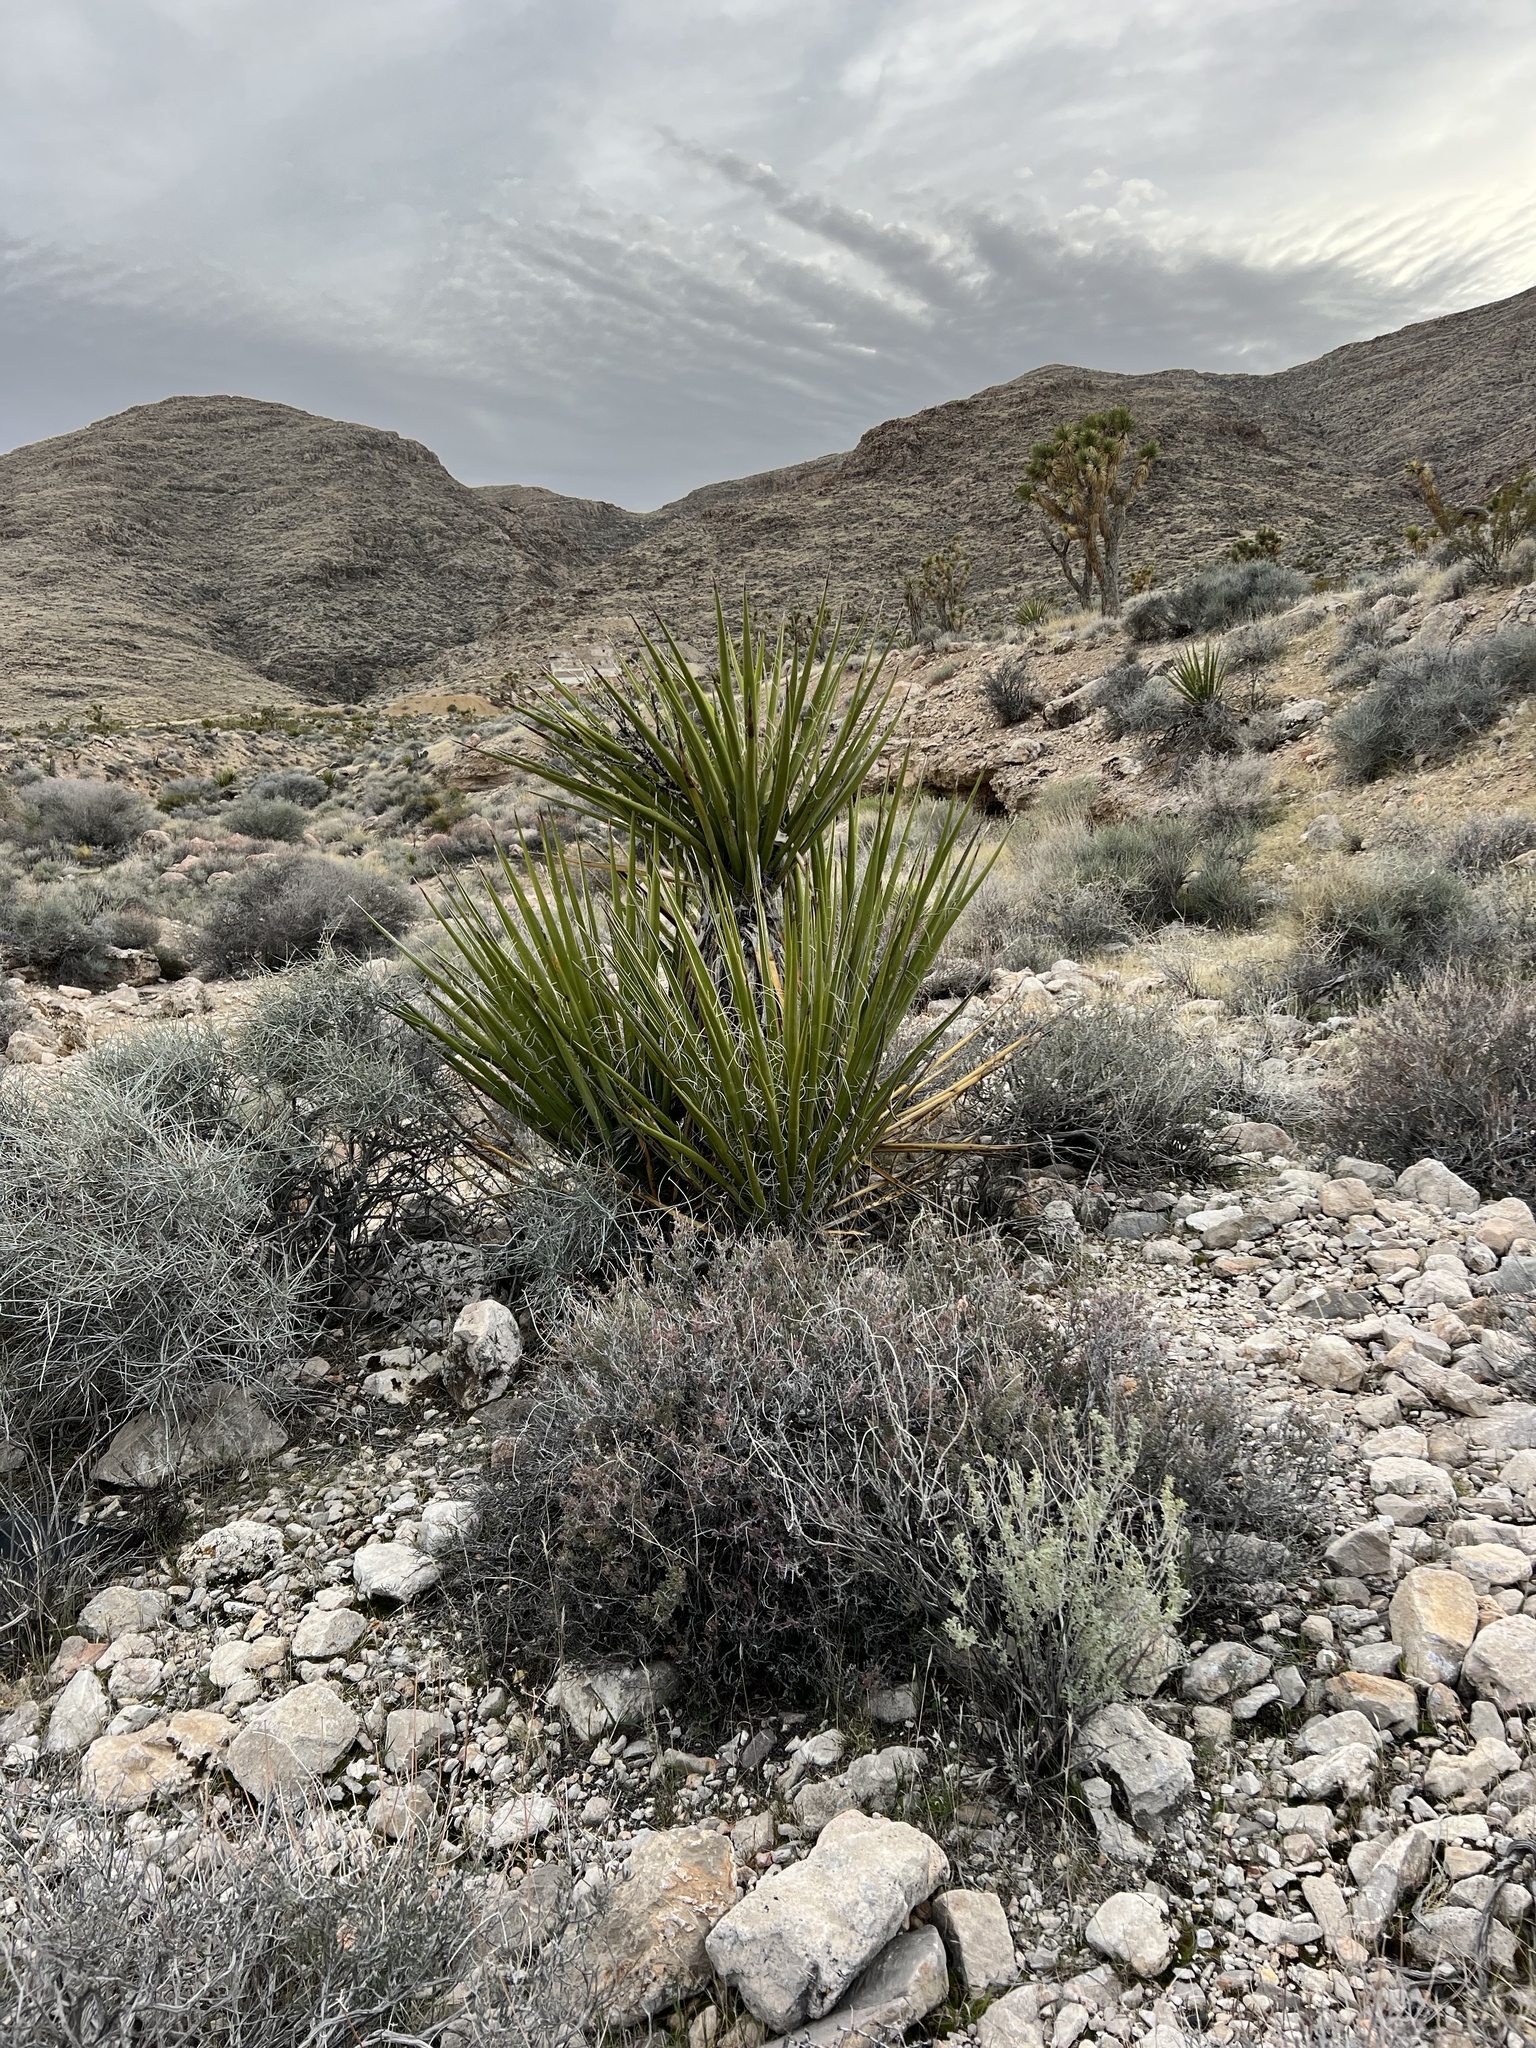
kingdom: Plantae
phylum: Tracheophyta
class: Liliopsida
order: Asparagales
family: Asparagaceae
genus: Yucca
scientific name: Yucca schidigera
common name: Mojave yucca
